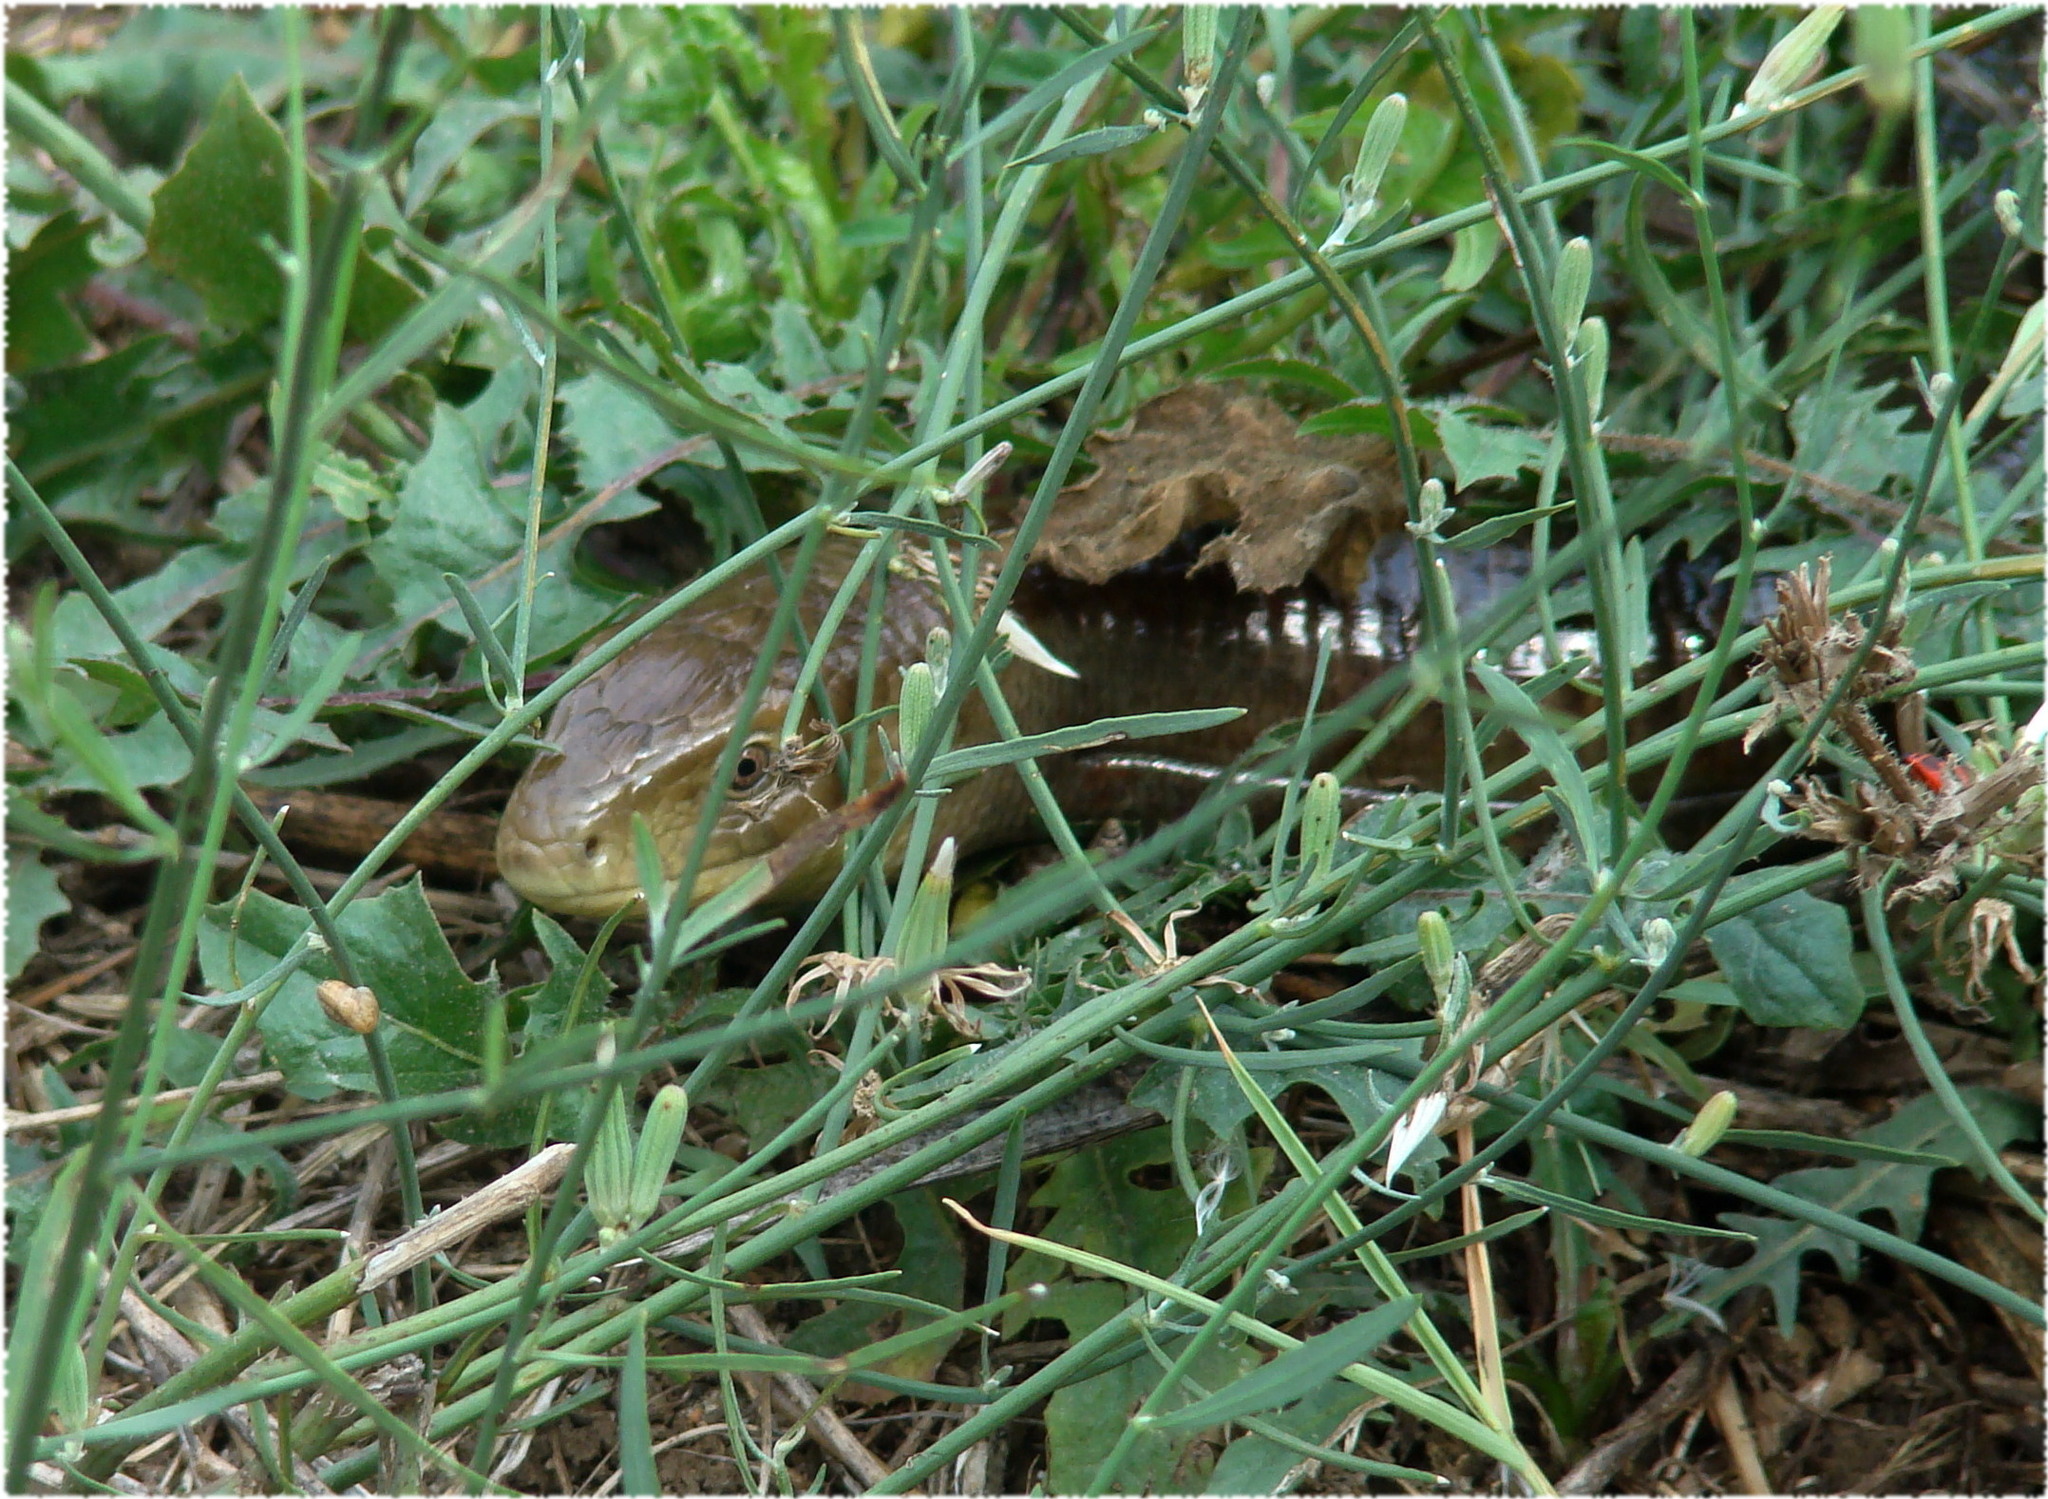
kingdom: Animalia
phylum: Chordata
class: Squamata
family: Anguidae
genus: Pseudopus
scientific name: Pseudopus apodus
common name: European glass lizard
